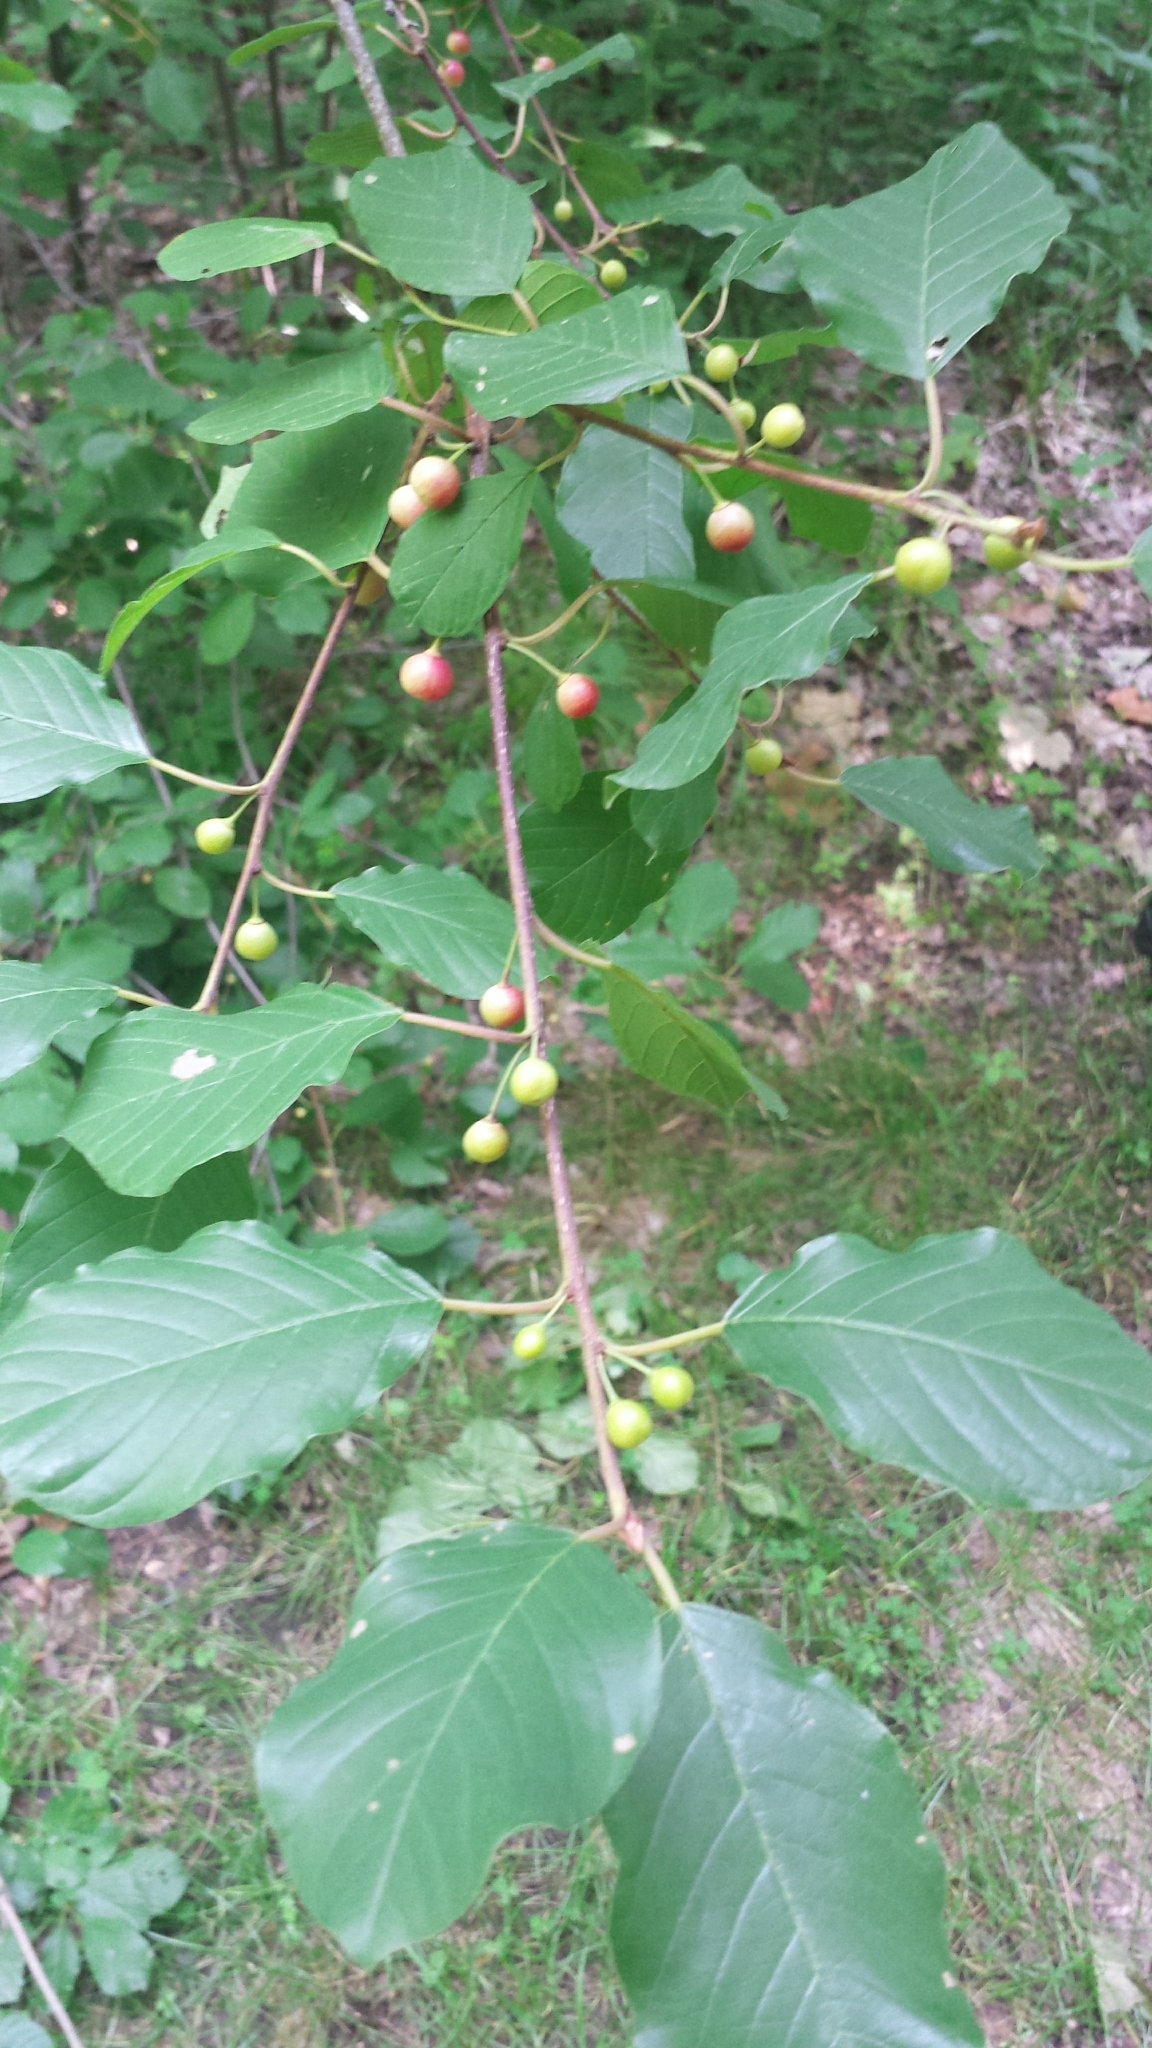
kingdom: Plantae
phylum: Tracheophyta
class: Magnoliopsida
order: Rosales
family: Rhamnaceae
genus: Frangula
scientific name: Frangula alnus
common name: Alder buckthorn
